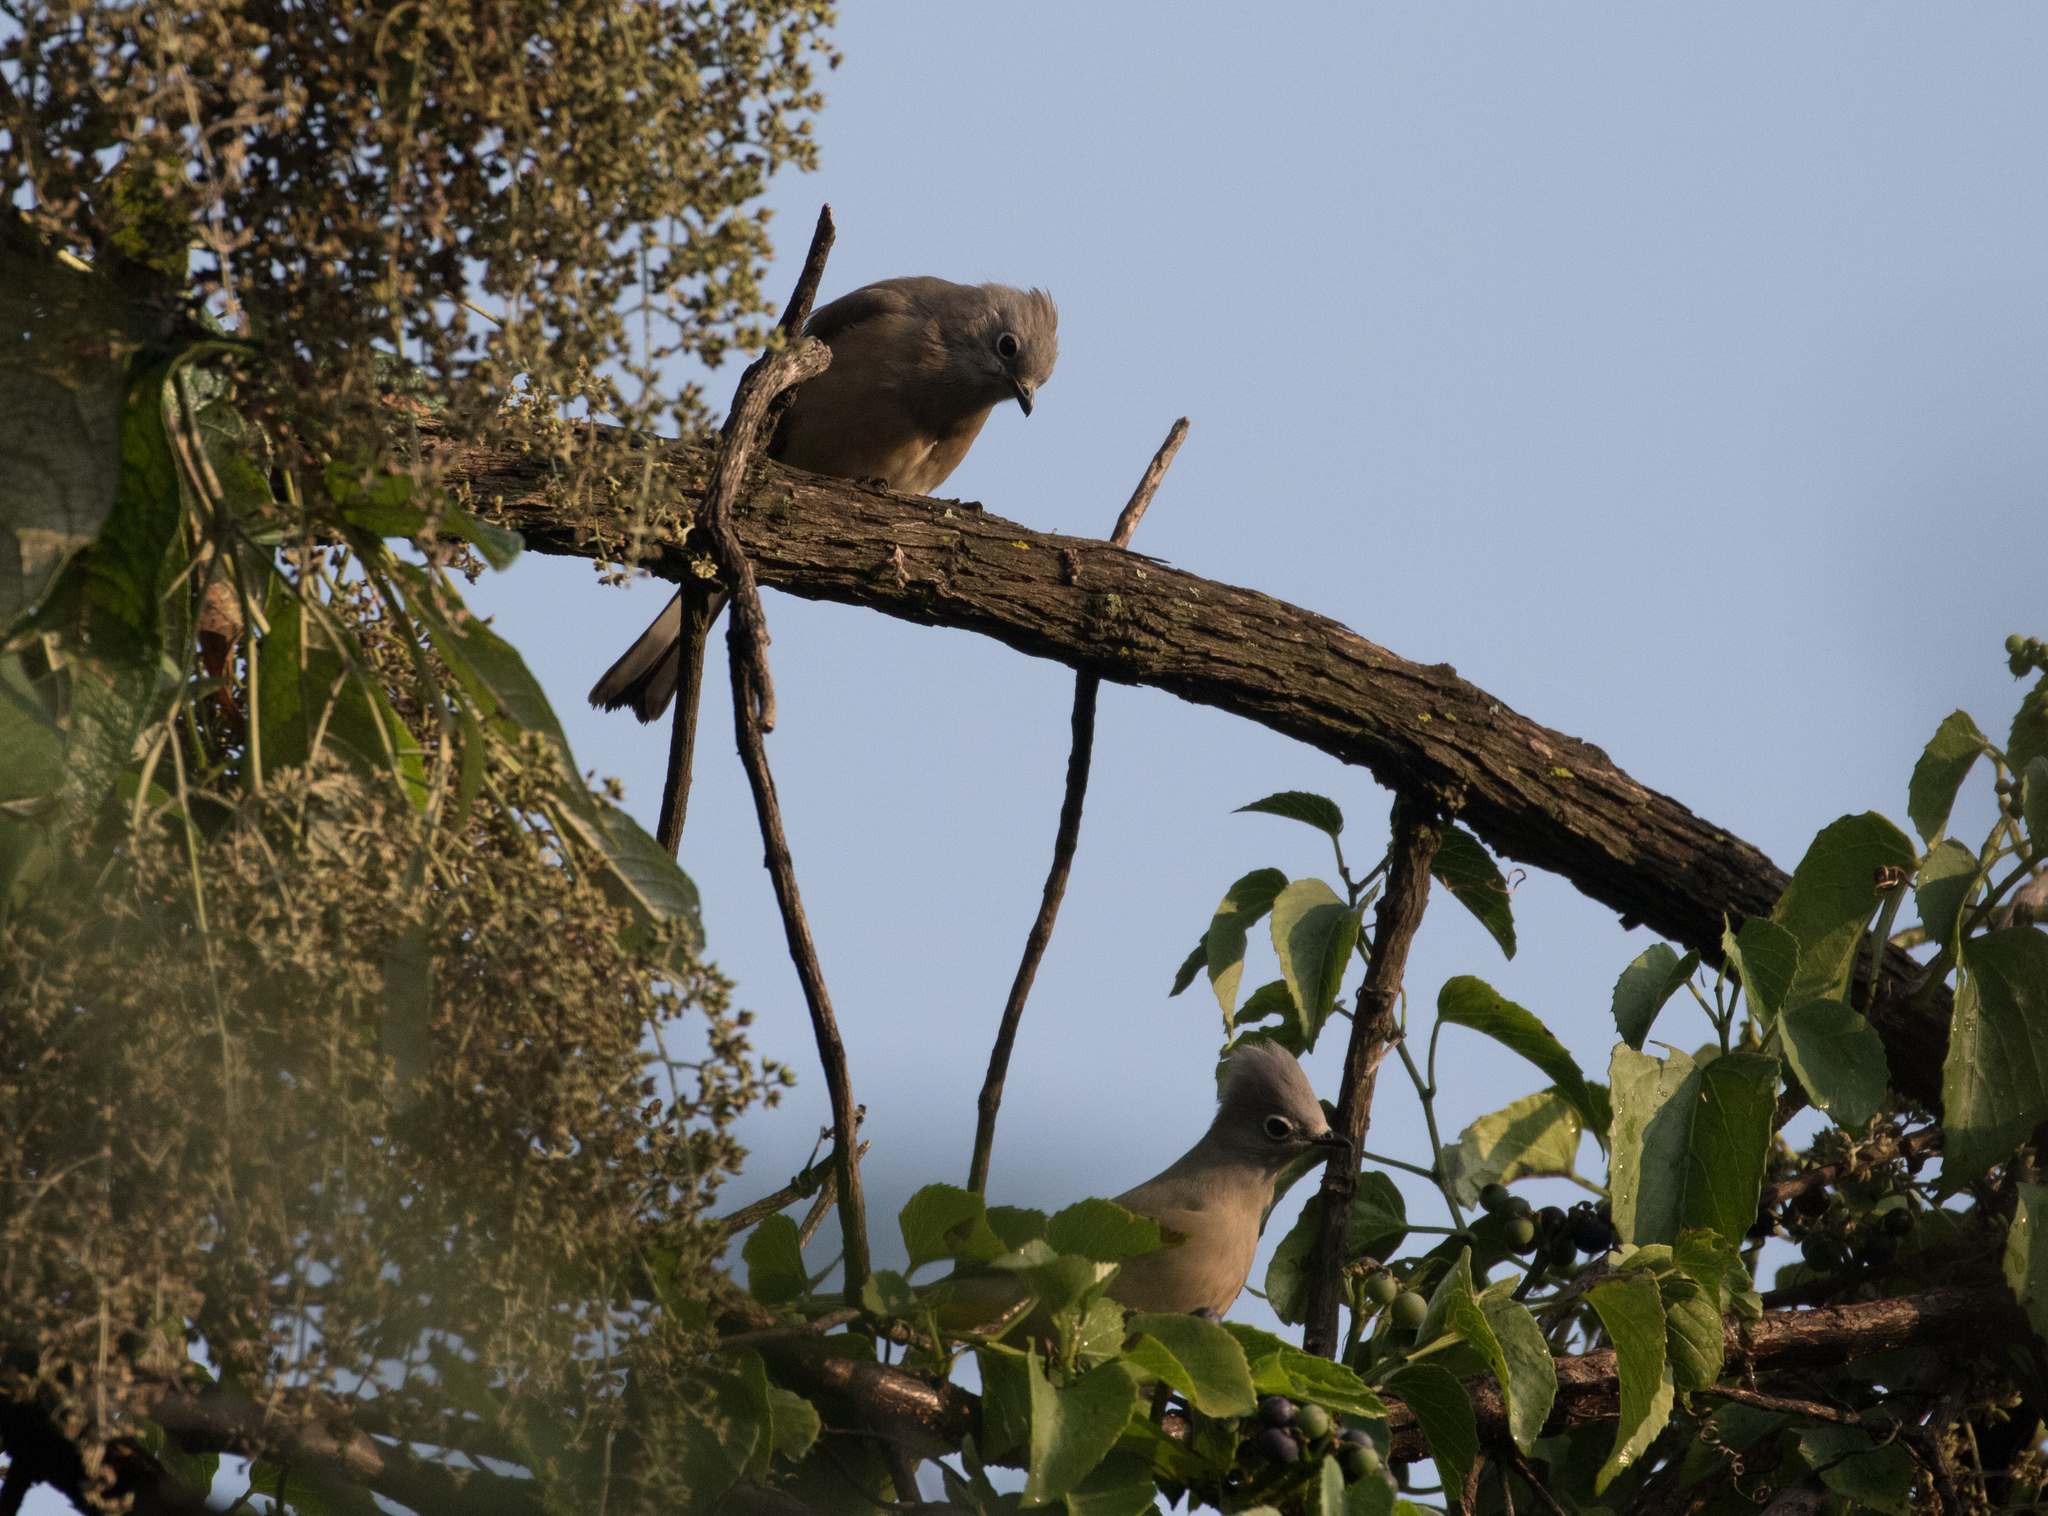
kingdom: Animalia
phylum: Chordata
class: Aves
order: Passeriformes
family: Ptilogonatidae
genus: Ptilogonys
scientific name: Ptilogonys cinereus
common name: Gray silky-flycatcher
